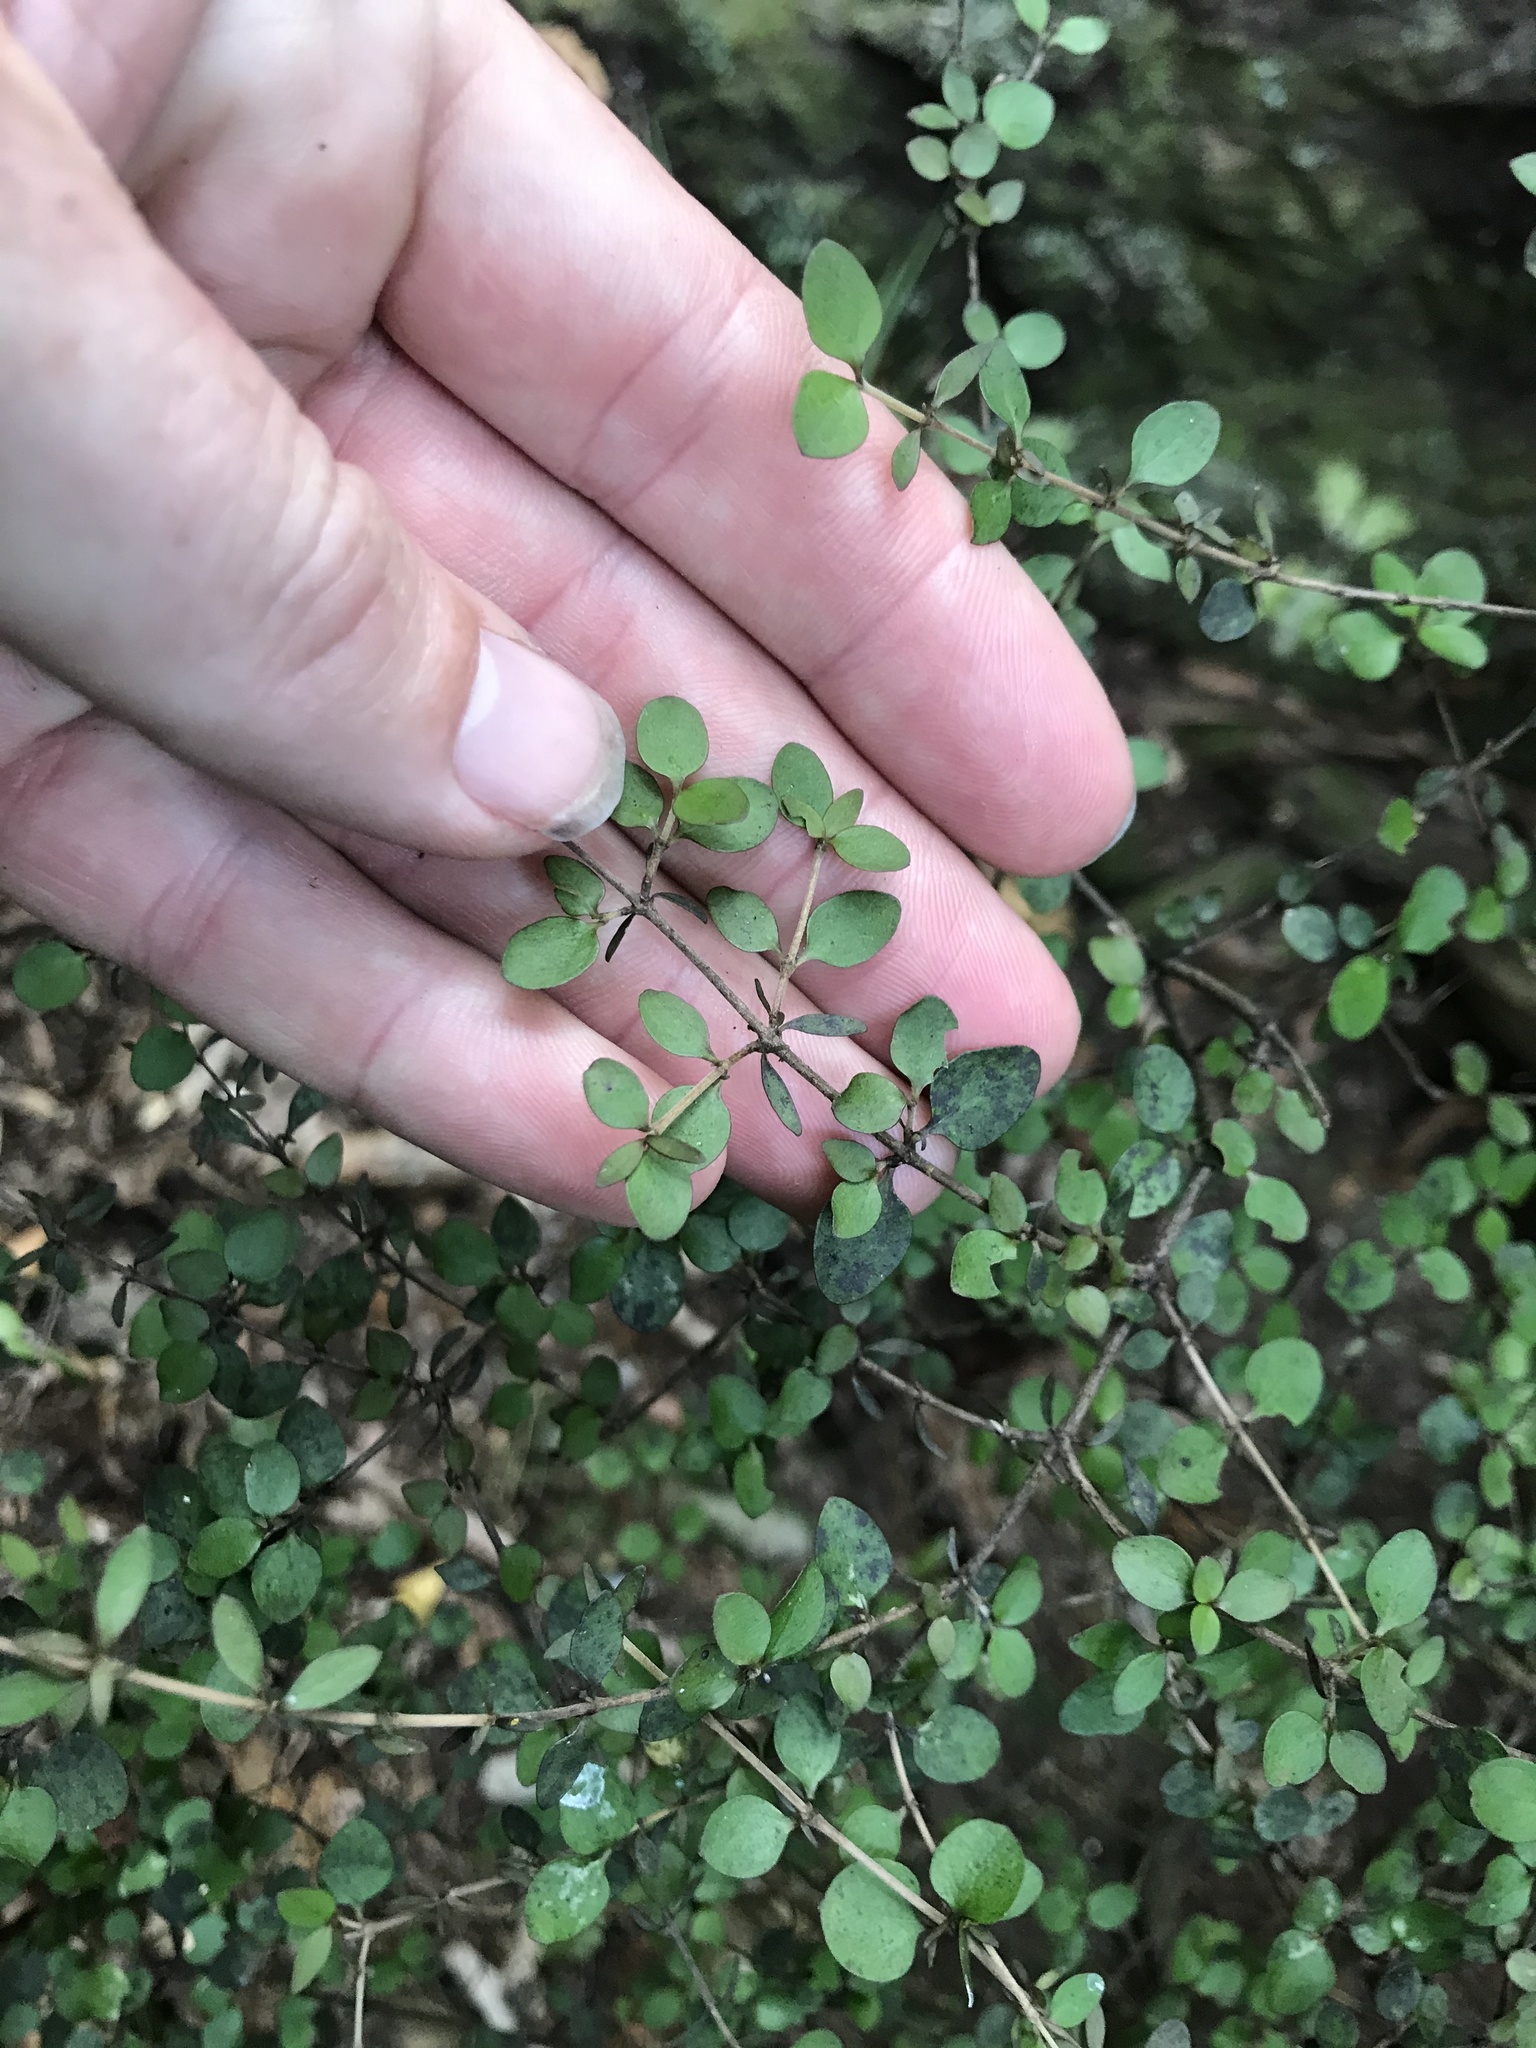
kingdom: Plantae
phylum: Tracheophyta
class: Magnoliopsida
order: Gentianales
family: Rubiaceae
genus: Coprosma
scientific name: Coprosma rhamnoides
